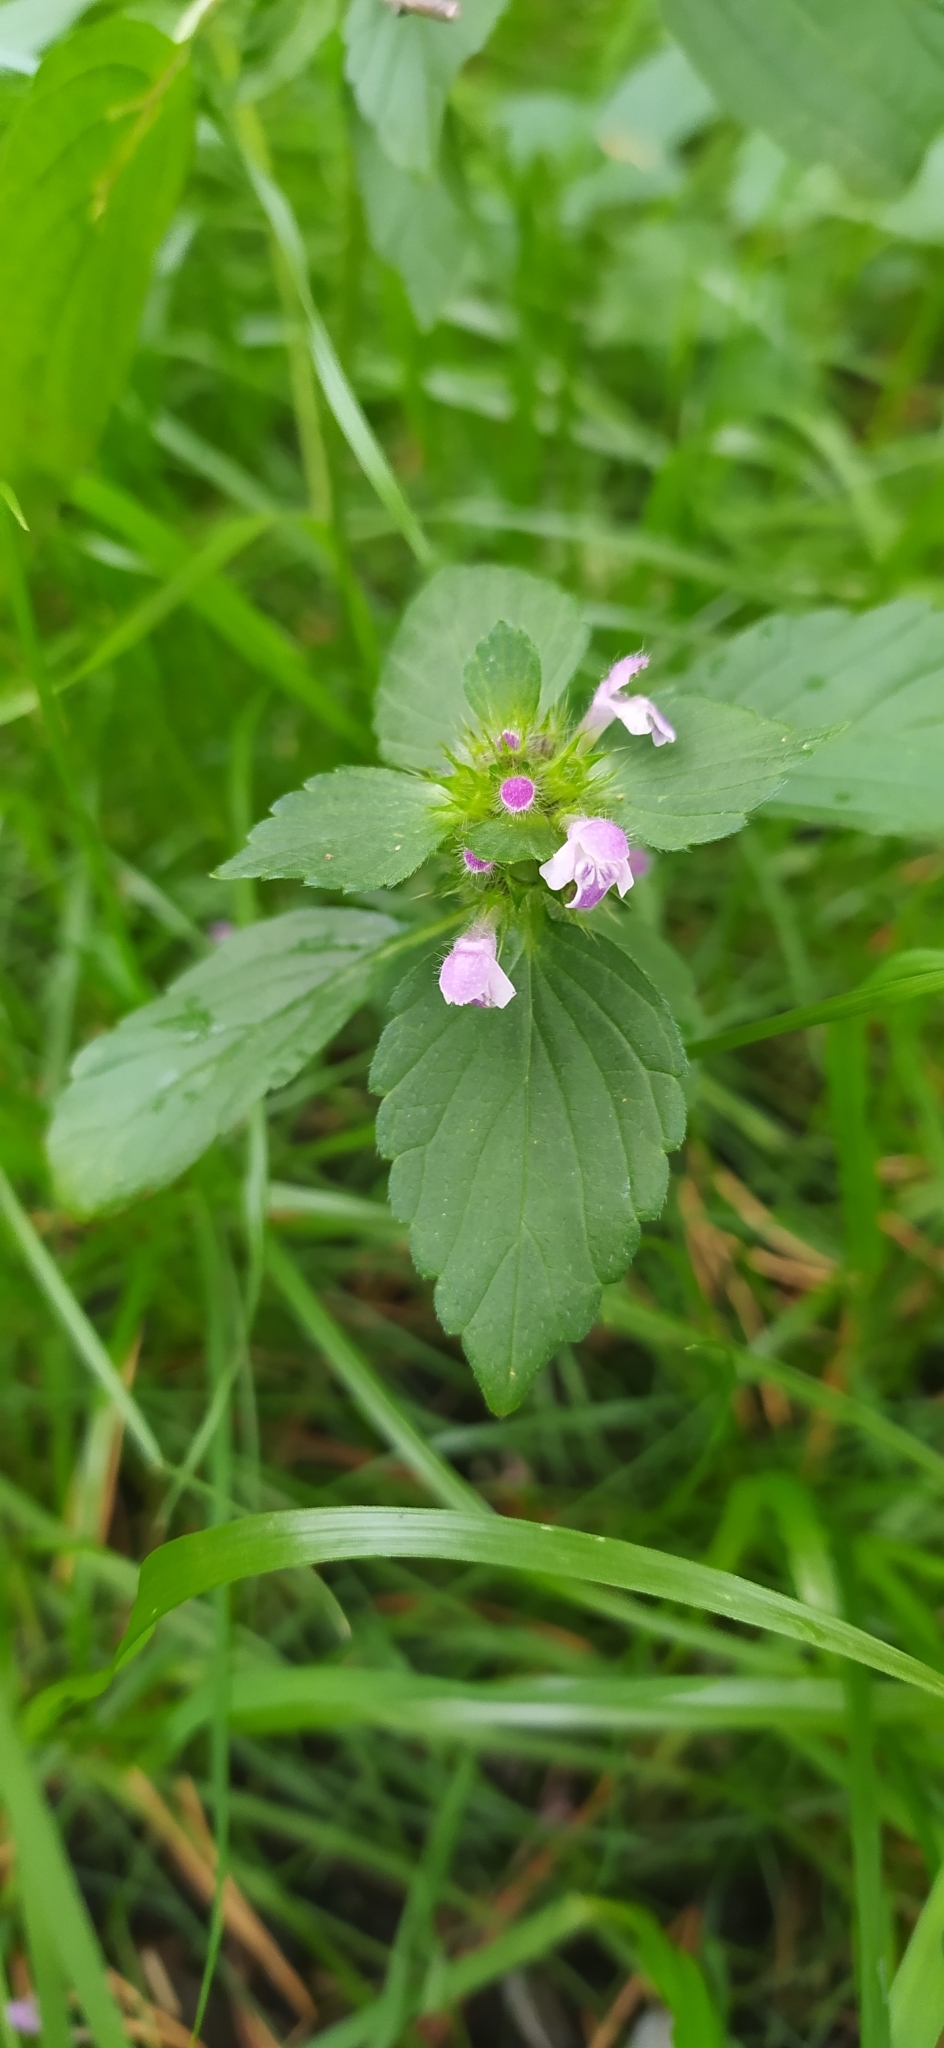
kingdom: Plantae
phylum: Tracheophyta
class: Magnoliopsida
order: Lamiales
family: Lamiaceae
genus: Galeopsis
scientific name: Galeopsis bifida
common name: Bifid hemp-nettle
